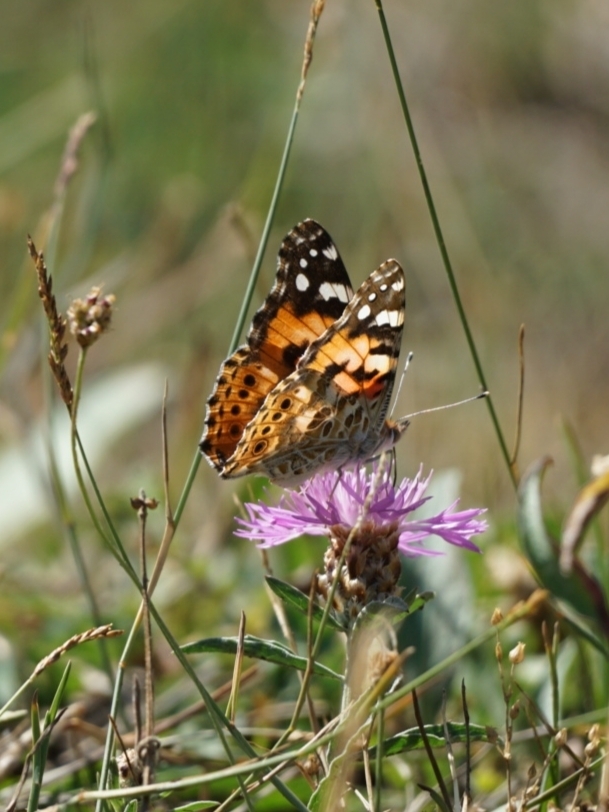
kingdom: Animalia
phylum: Arthropoda
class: Insecta
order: Lepidoptera
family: Nymphalidae
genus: Vanessa
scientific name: Vanessa cardui
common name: Painted lady
